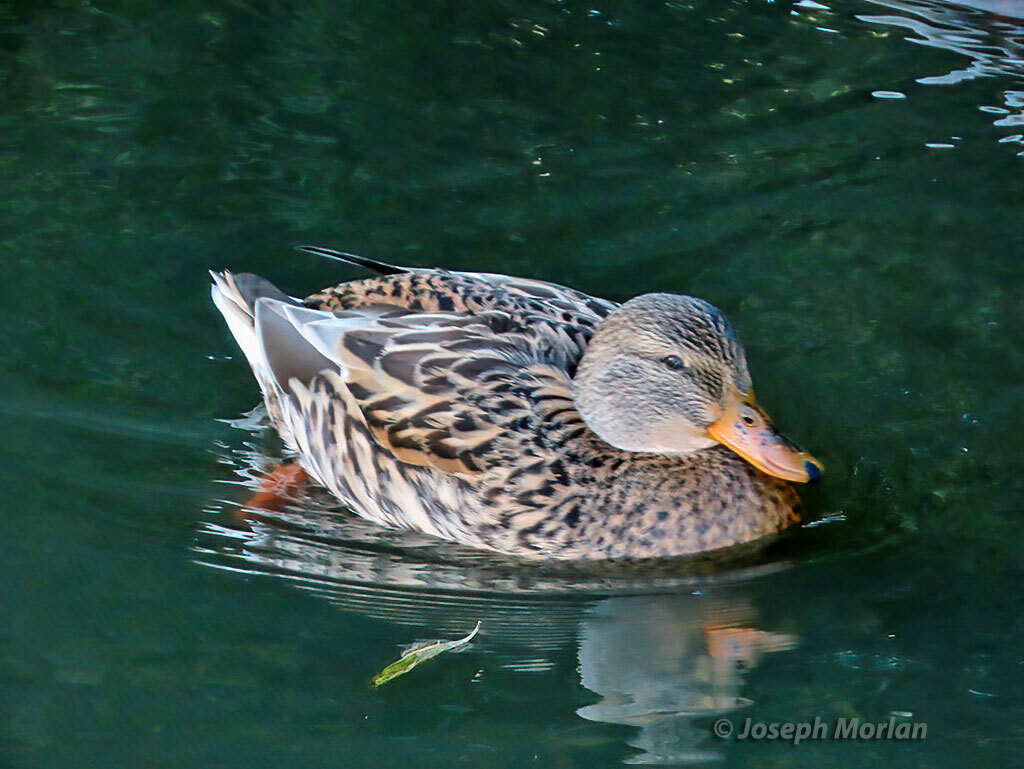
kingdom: Animalia
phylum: Chordata
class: Aves
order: Anseriformes
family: Anatidae
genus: Anas
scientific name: Anas platyrhynchos
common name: Mallard
